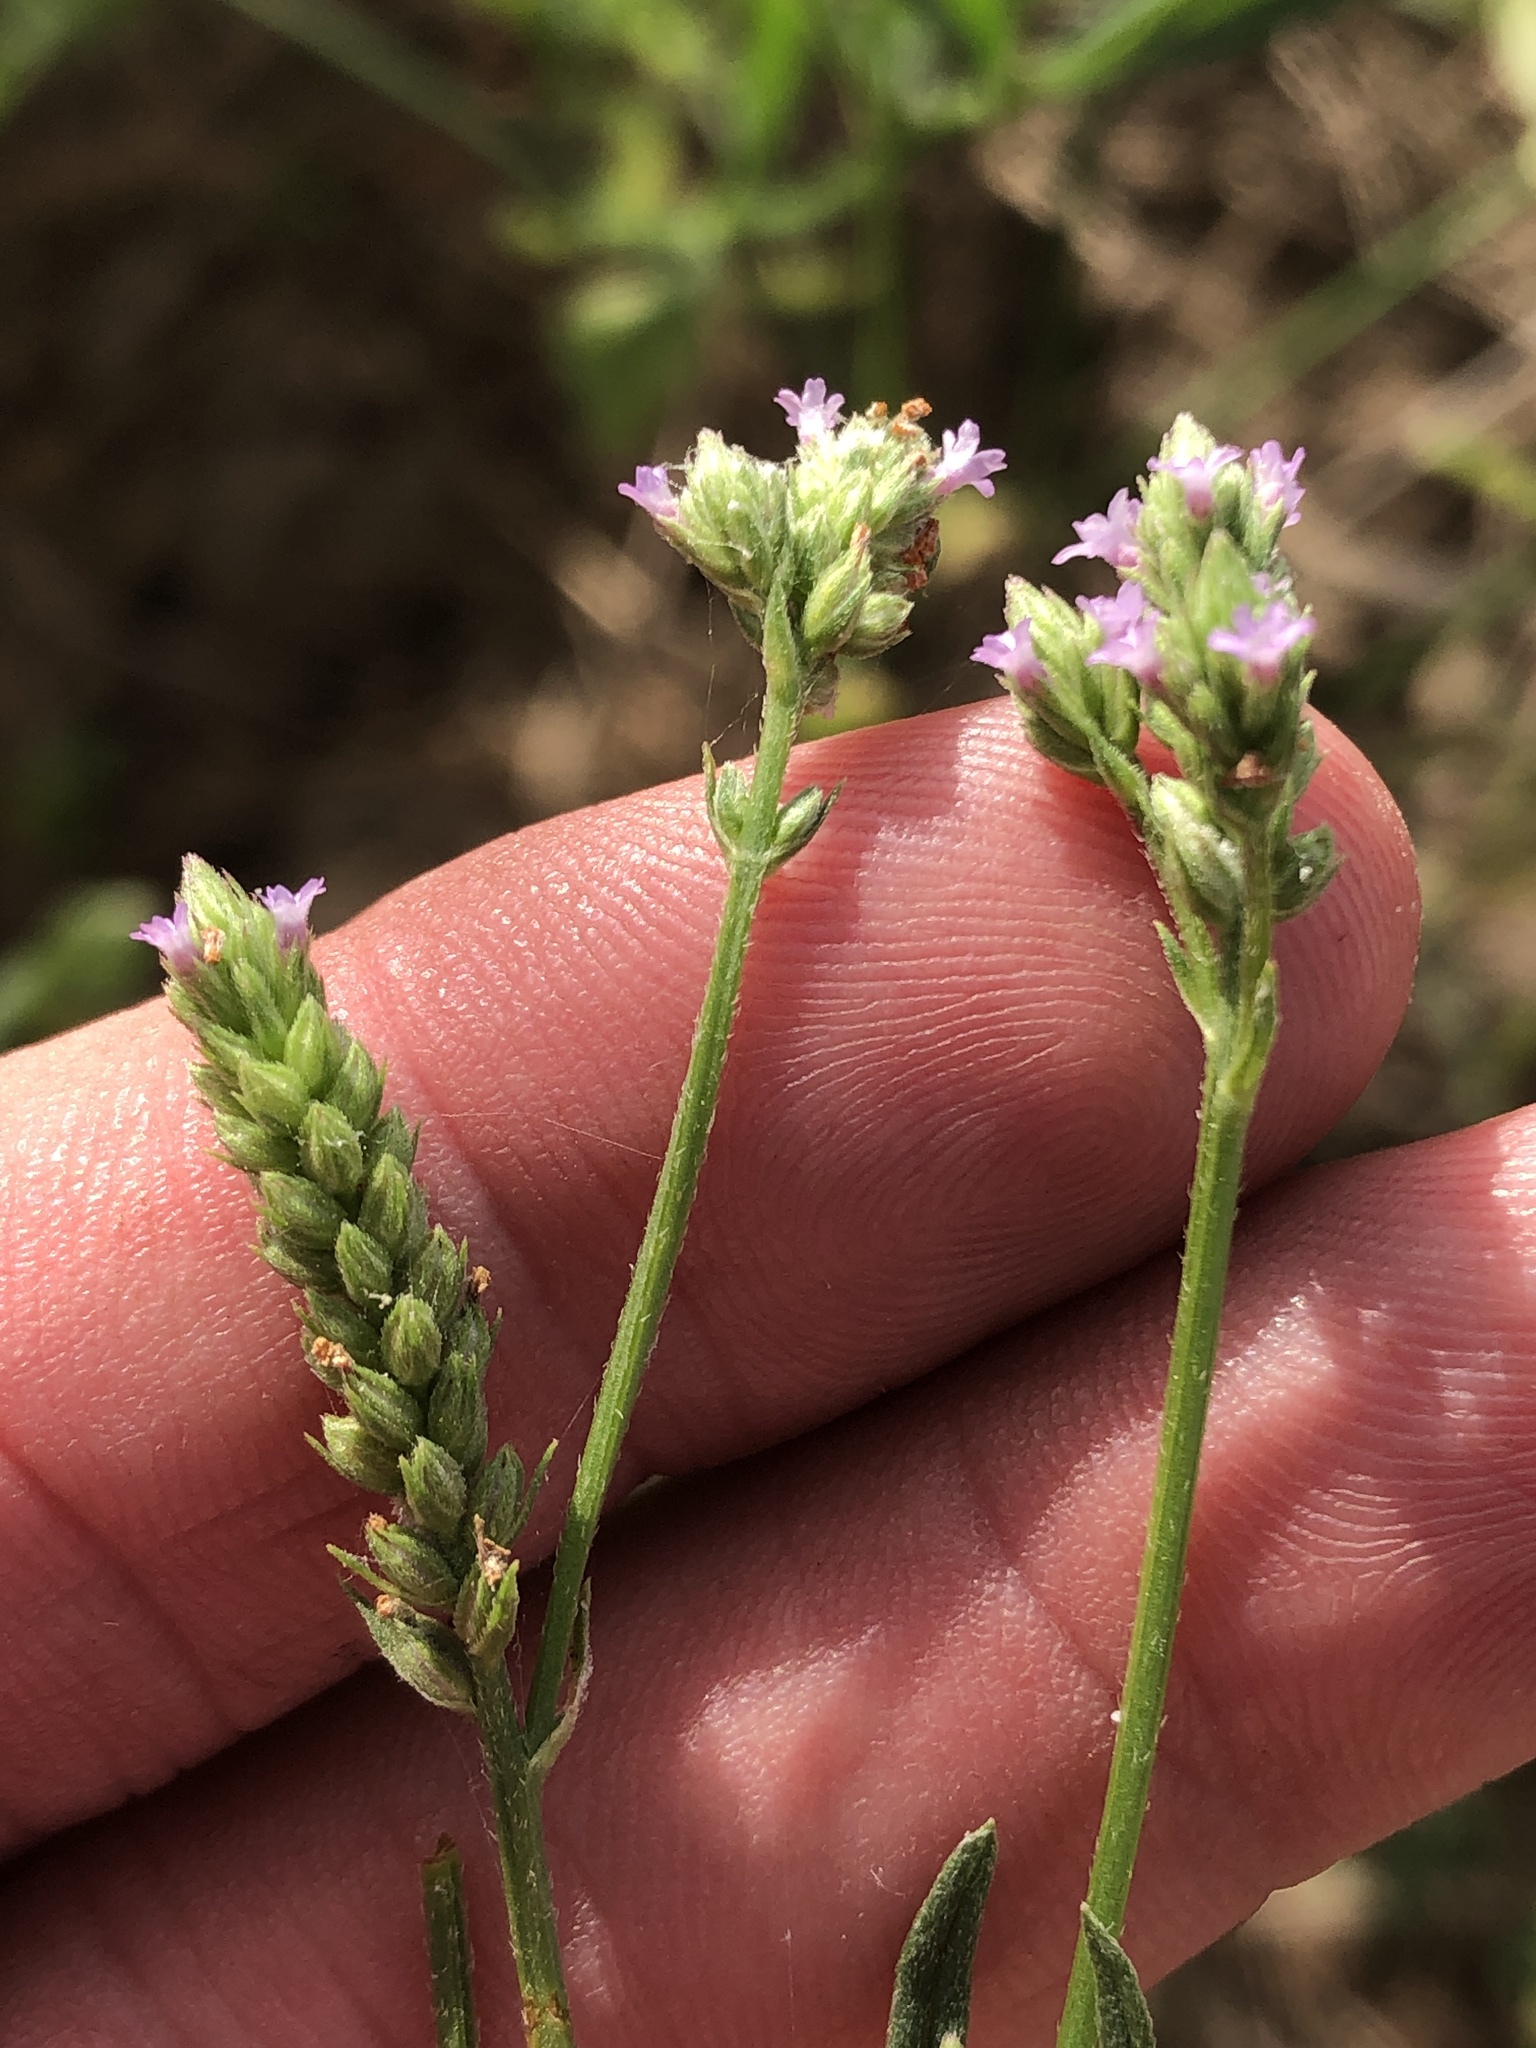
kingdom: Plantae
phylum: Tracheophyta
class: Magnoliopsida
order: Lamiales
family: Verbenaceae
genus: Verbena
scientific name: Verbena brasiliensis
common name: Brazilian vervain
